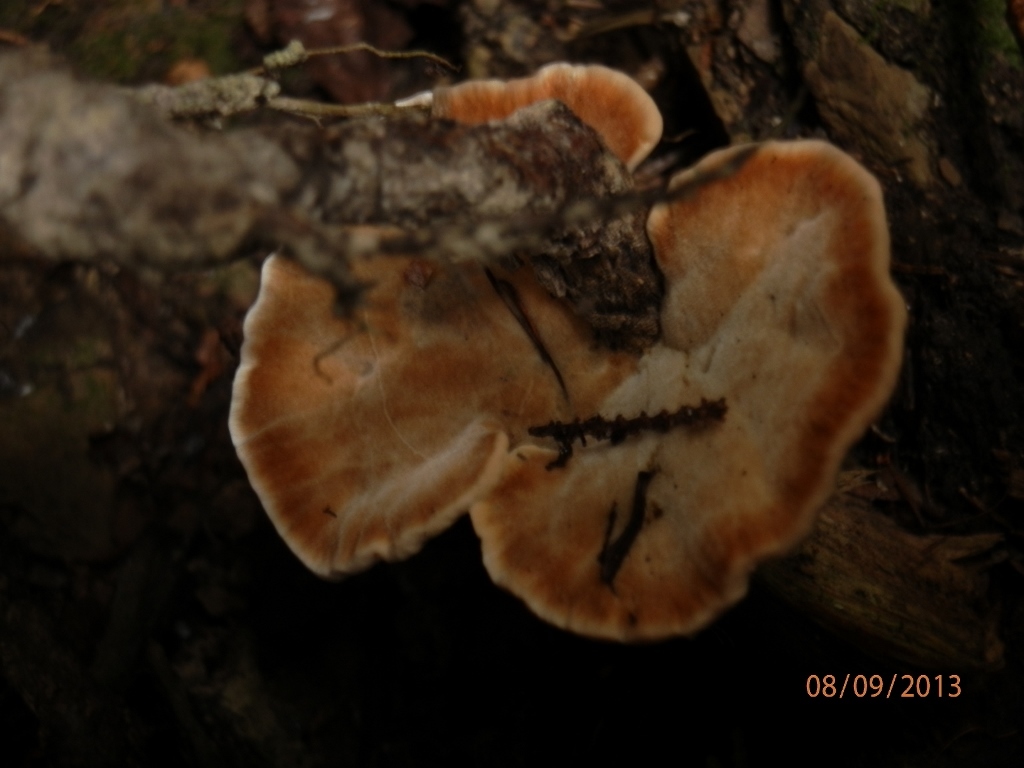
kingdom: Fungi
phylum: Basidiomycota
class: Agaricomycetes
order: Hymenochaetales
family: Hymenochaetaceae
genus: Onnia
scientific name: Onnia tomentosa
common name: Velvet rosette
